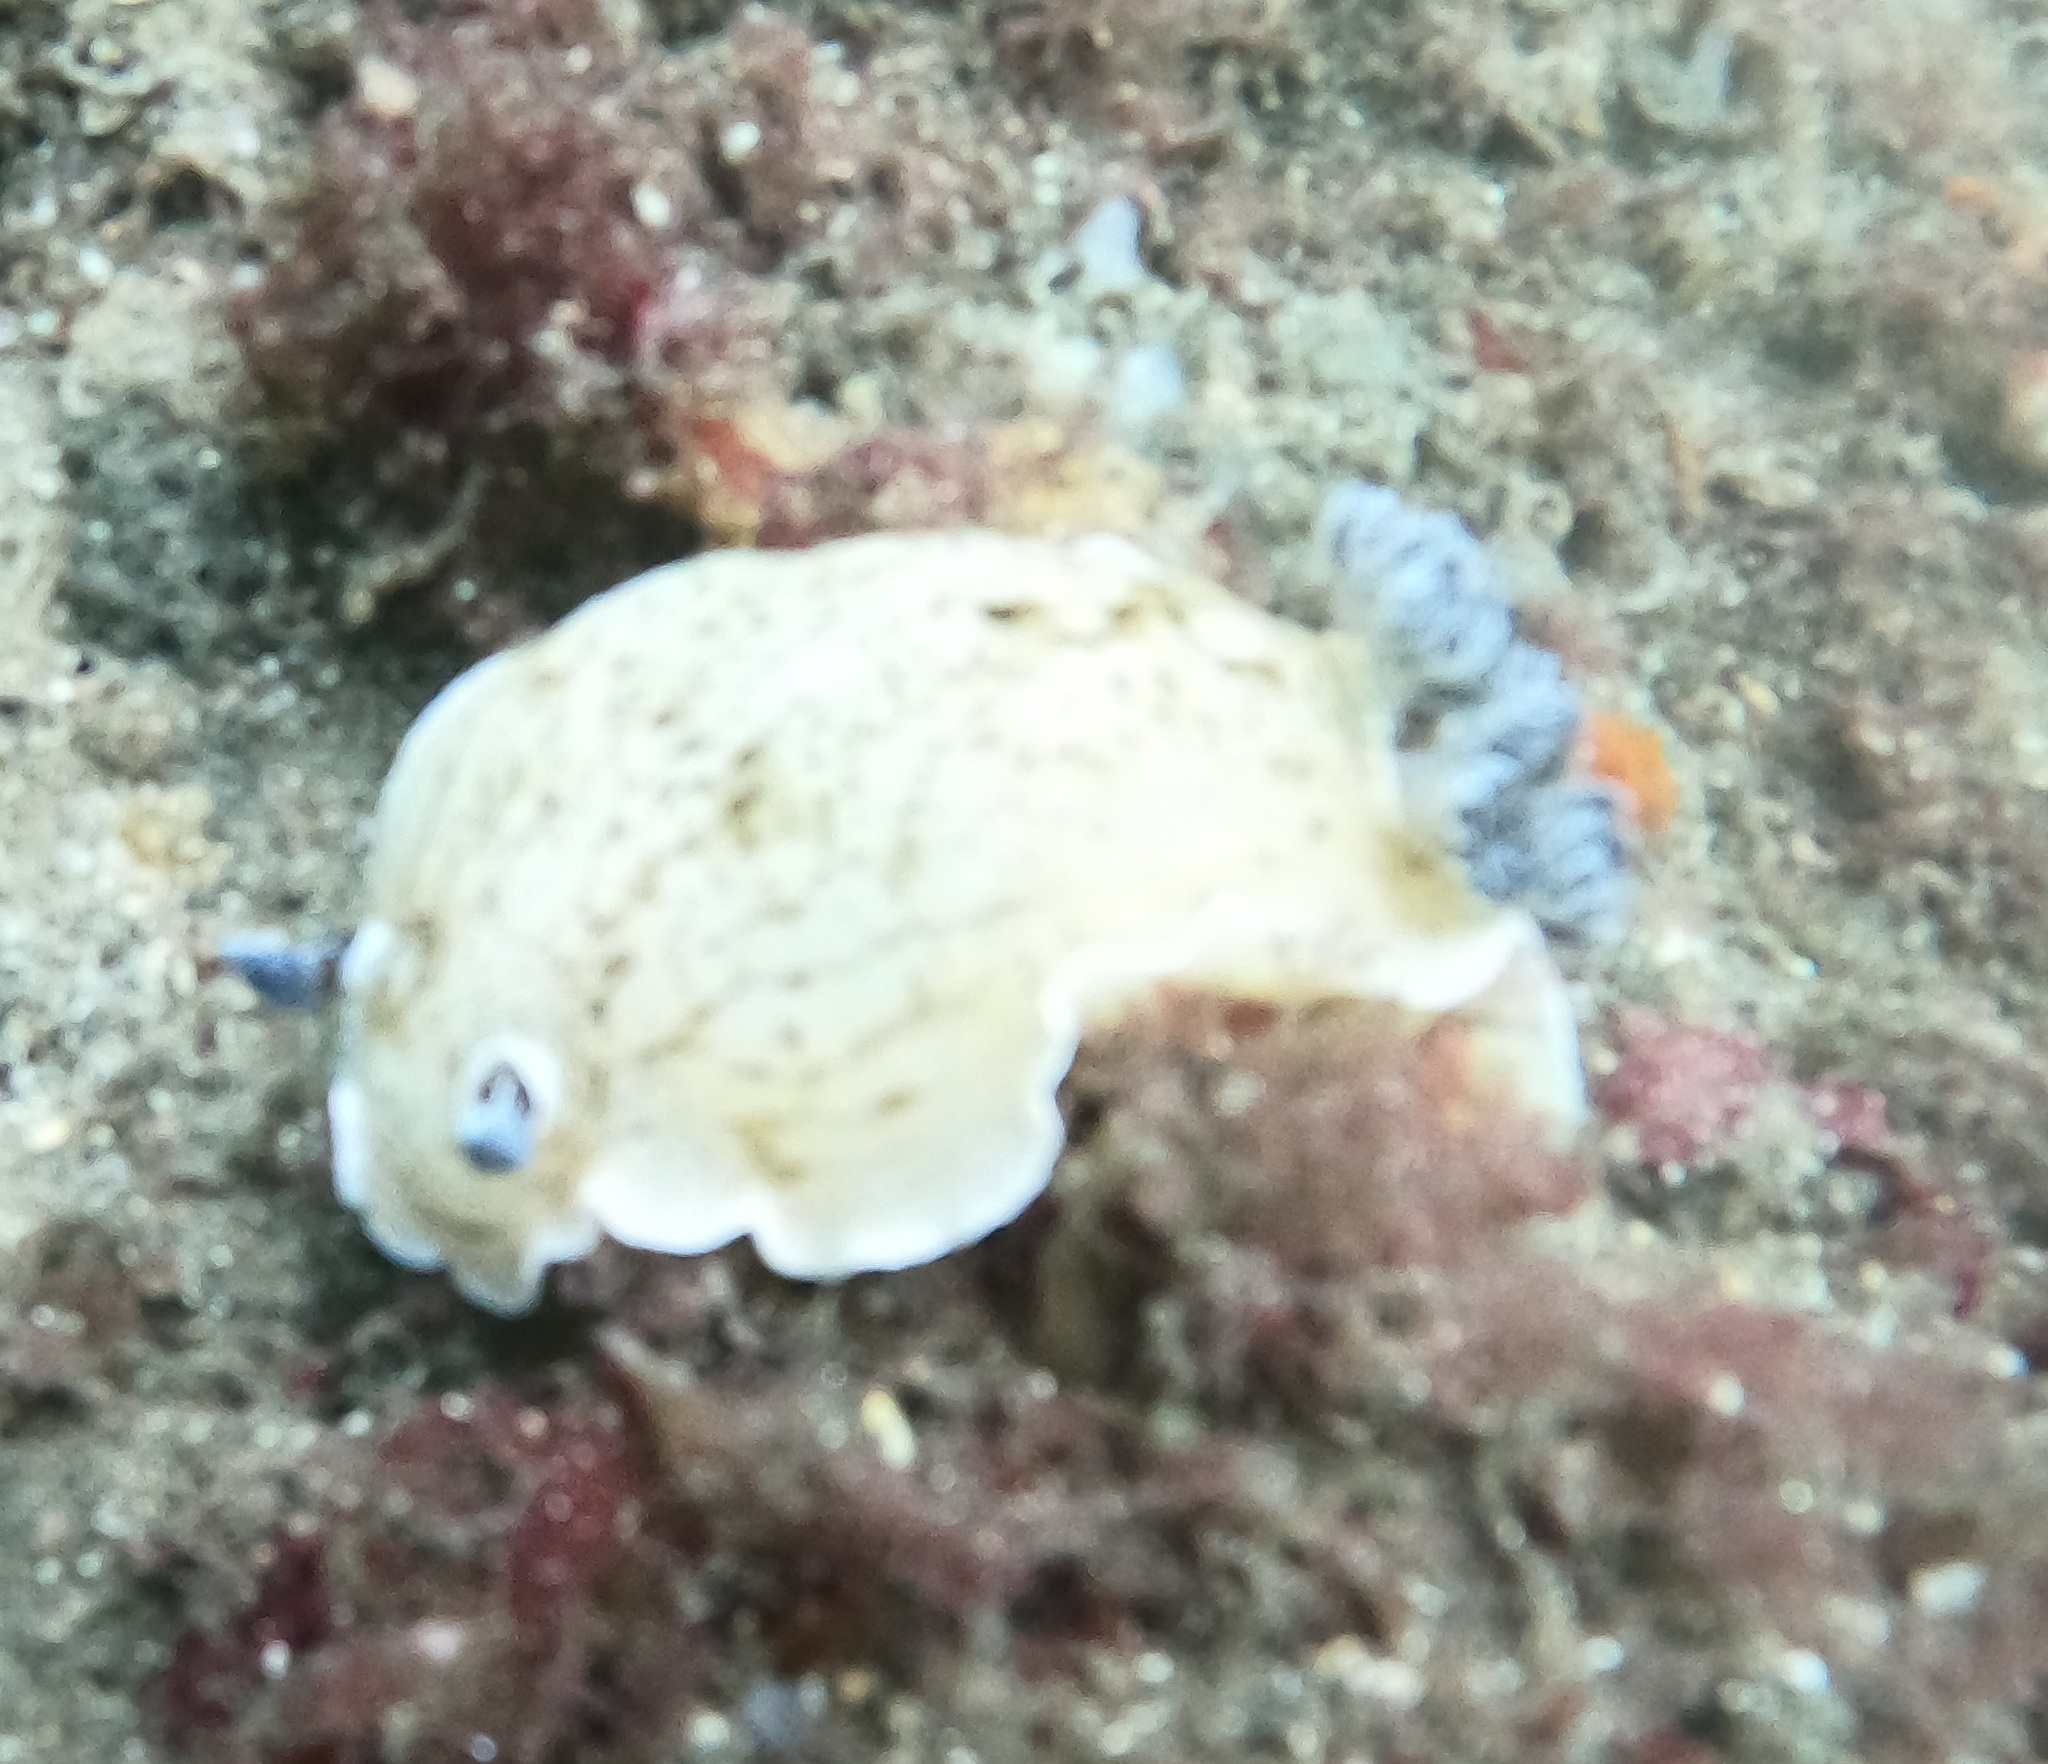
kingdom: Animalia
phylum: Mollusca
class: Gastropoda
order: Nudibranchia
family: Dorididae
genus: Aphelodoris
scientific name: Aphelodoris varia
